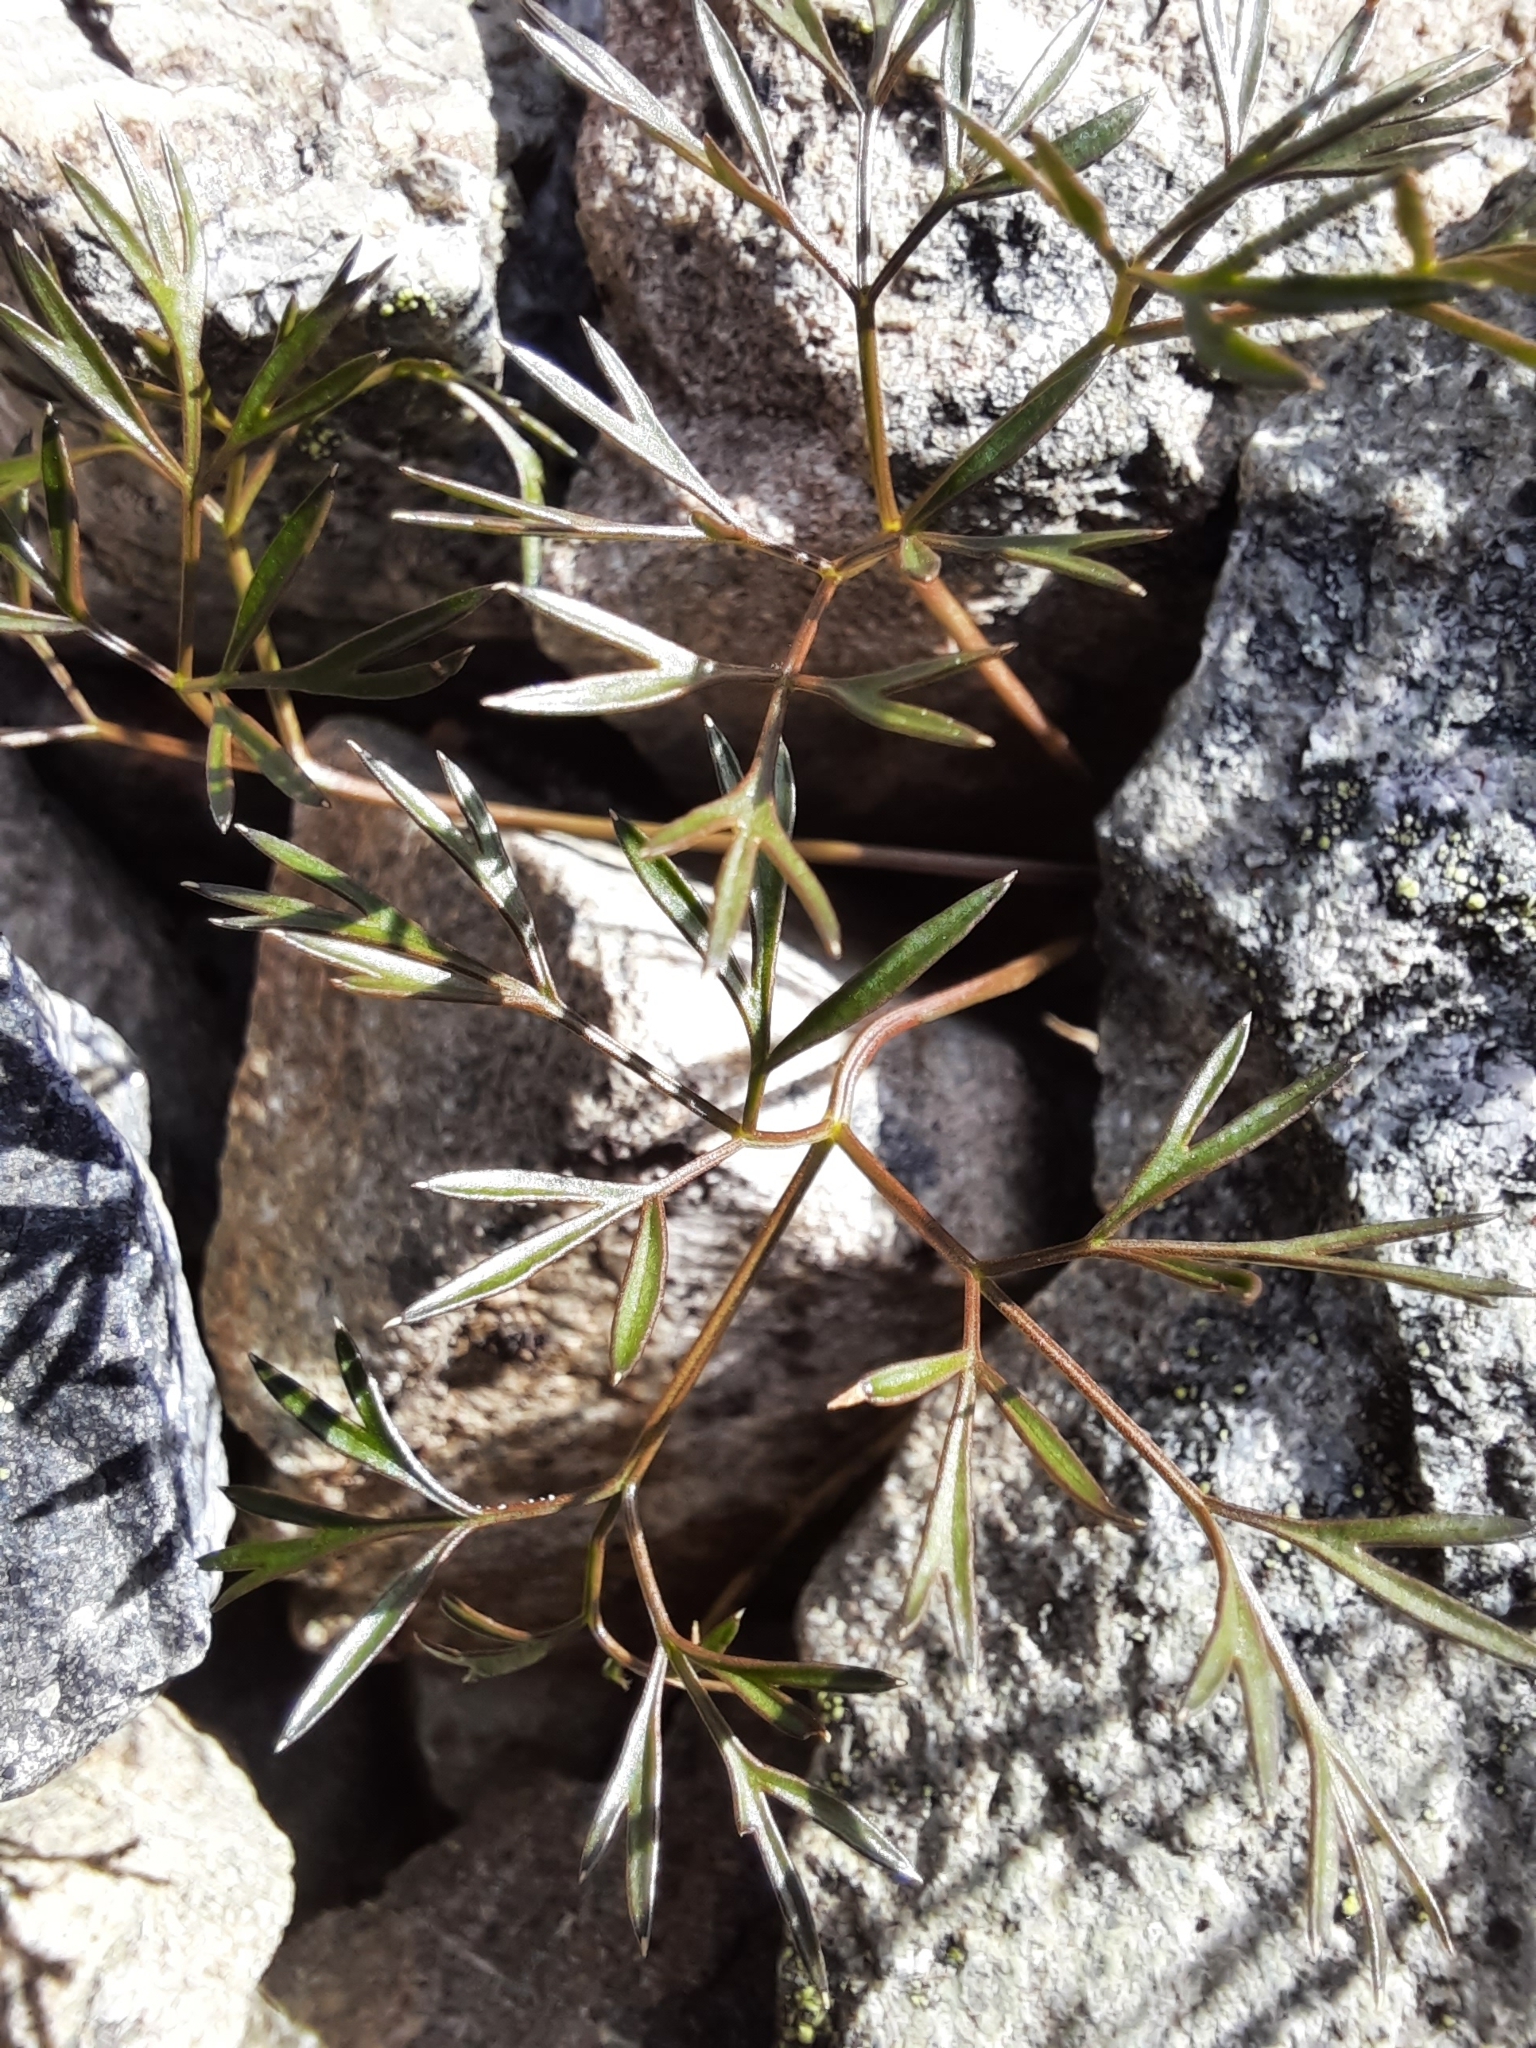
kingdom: Plantae
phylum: Tracheophyta
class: Magnoliopsida
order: Apiales
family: Apiaceae
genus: Anisotome
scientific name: Anisotome filifolia
